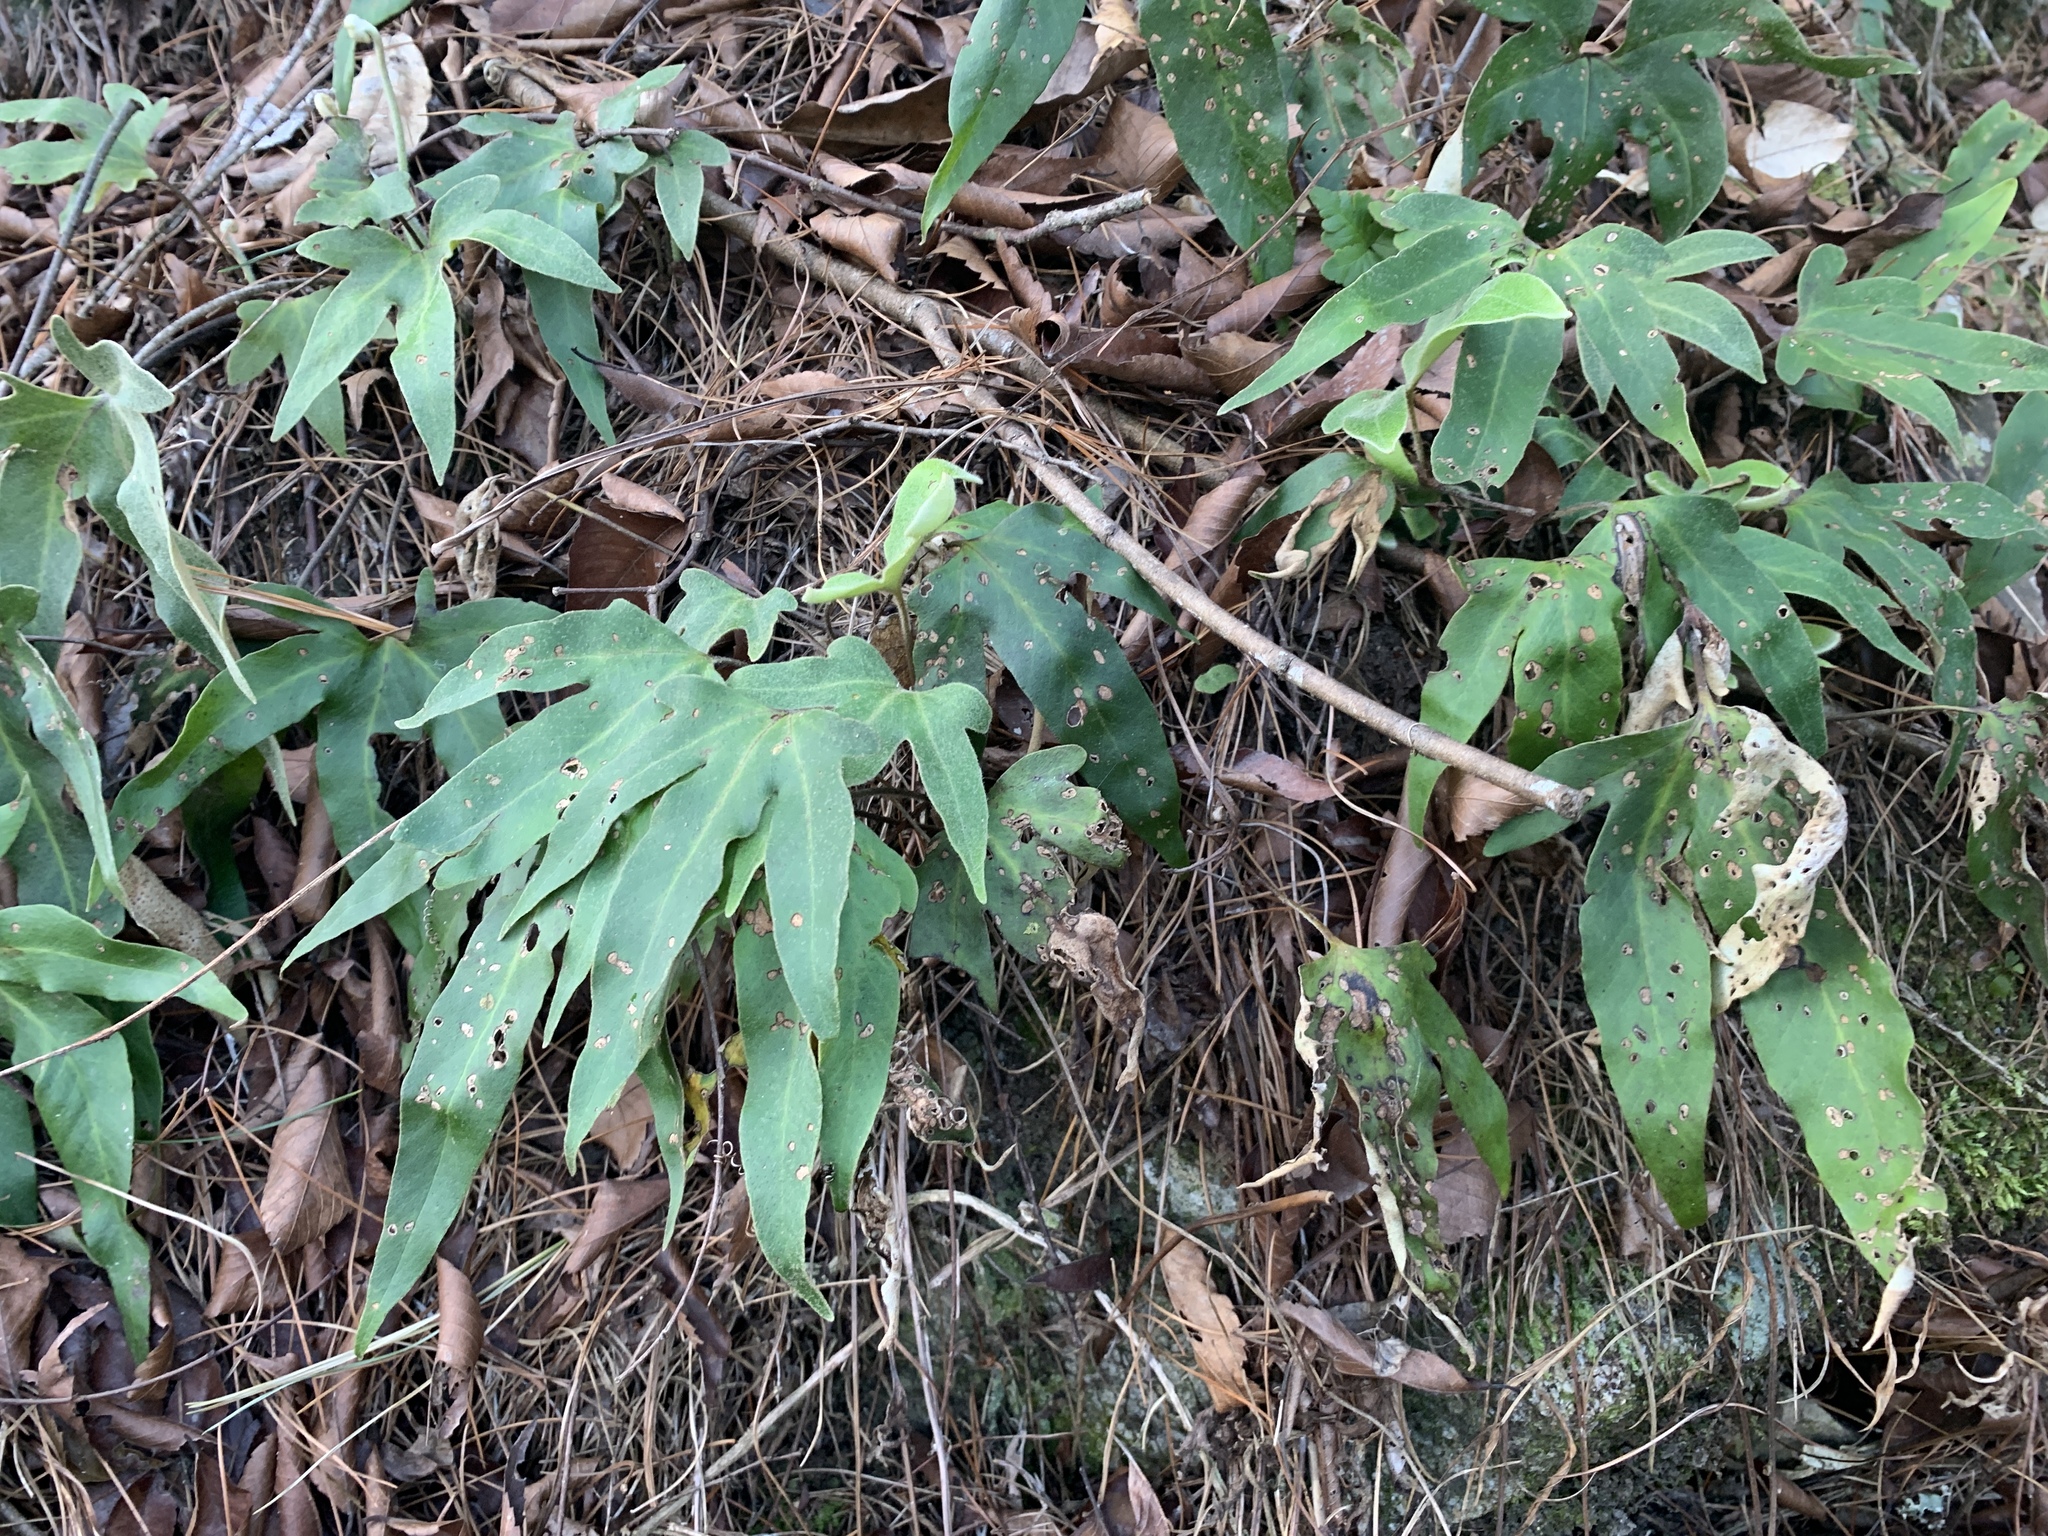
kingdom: Plantae
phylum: Tracheophyta
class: Polypodiopsida
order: Polypodiales
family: Polypodiaceae
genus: Pyrrosia
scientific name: Pyrrosia polydactyla
